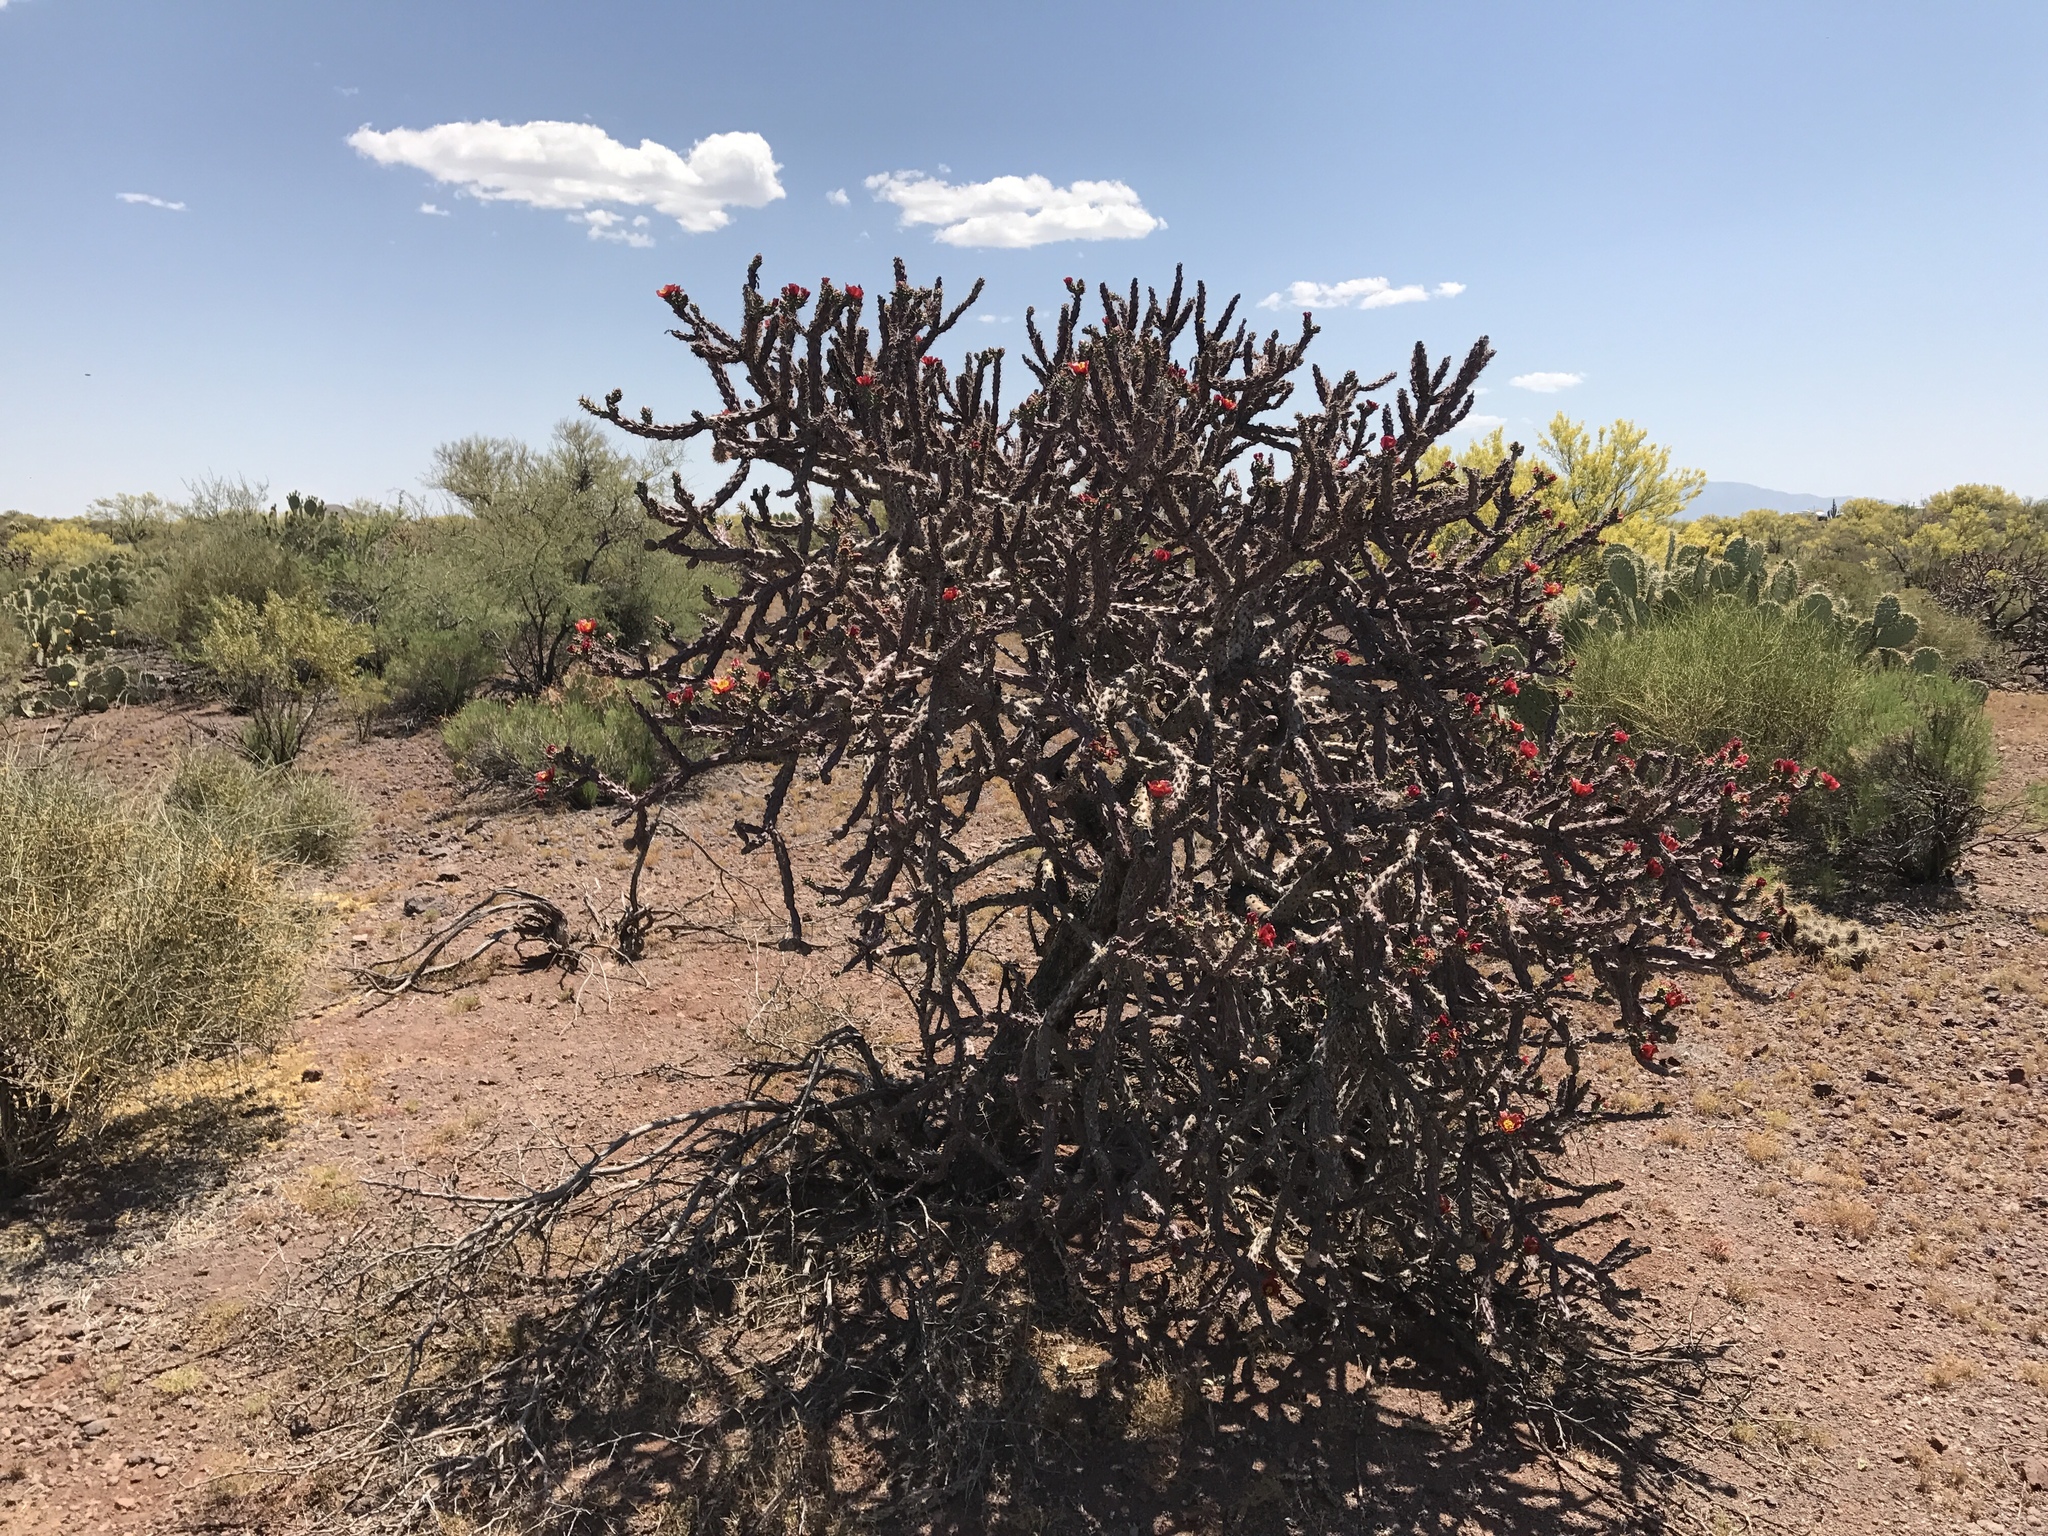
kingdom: Plantae
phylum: Tracheophyta
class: Magnoliopsida
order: Caryophyllales
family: Cactaceae
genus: Cylindropuntia
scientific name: Cylindropuntia thurberi
